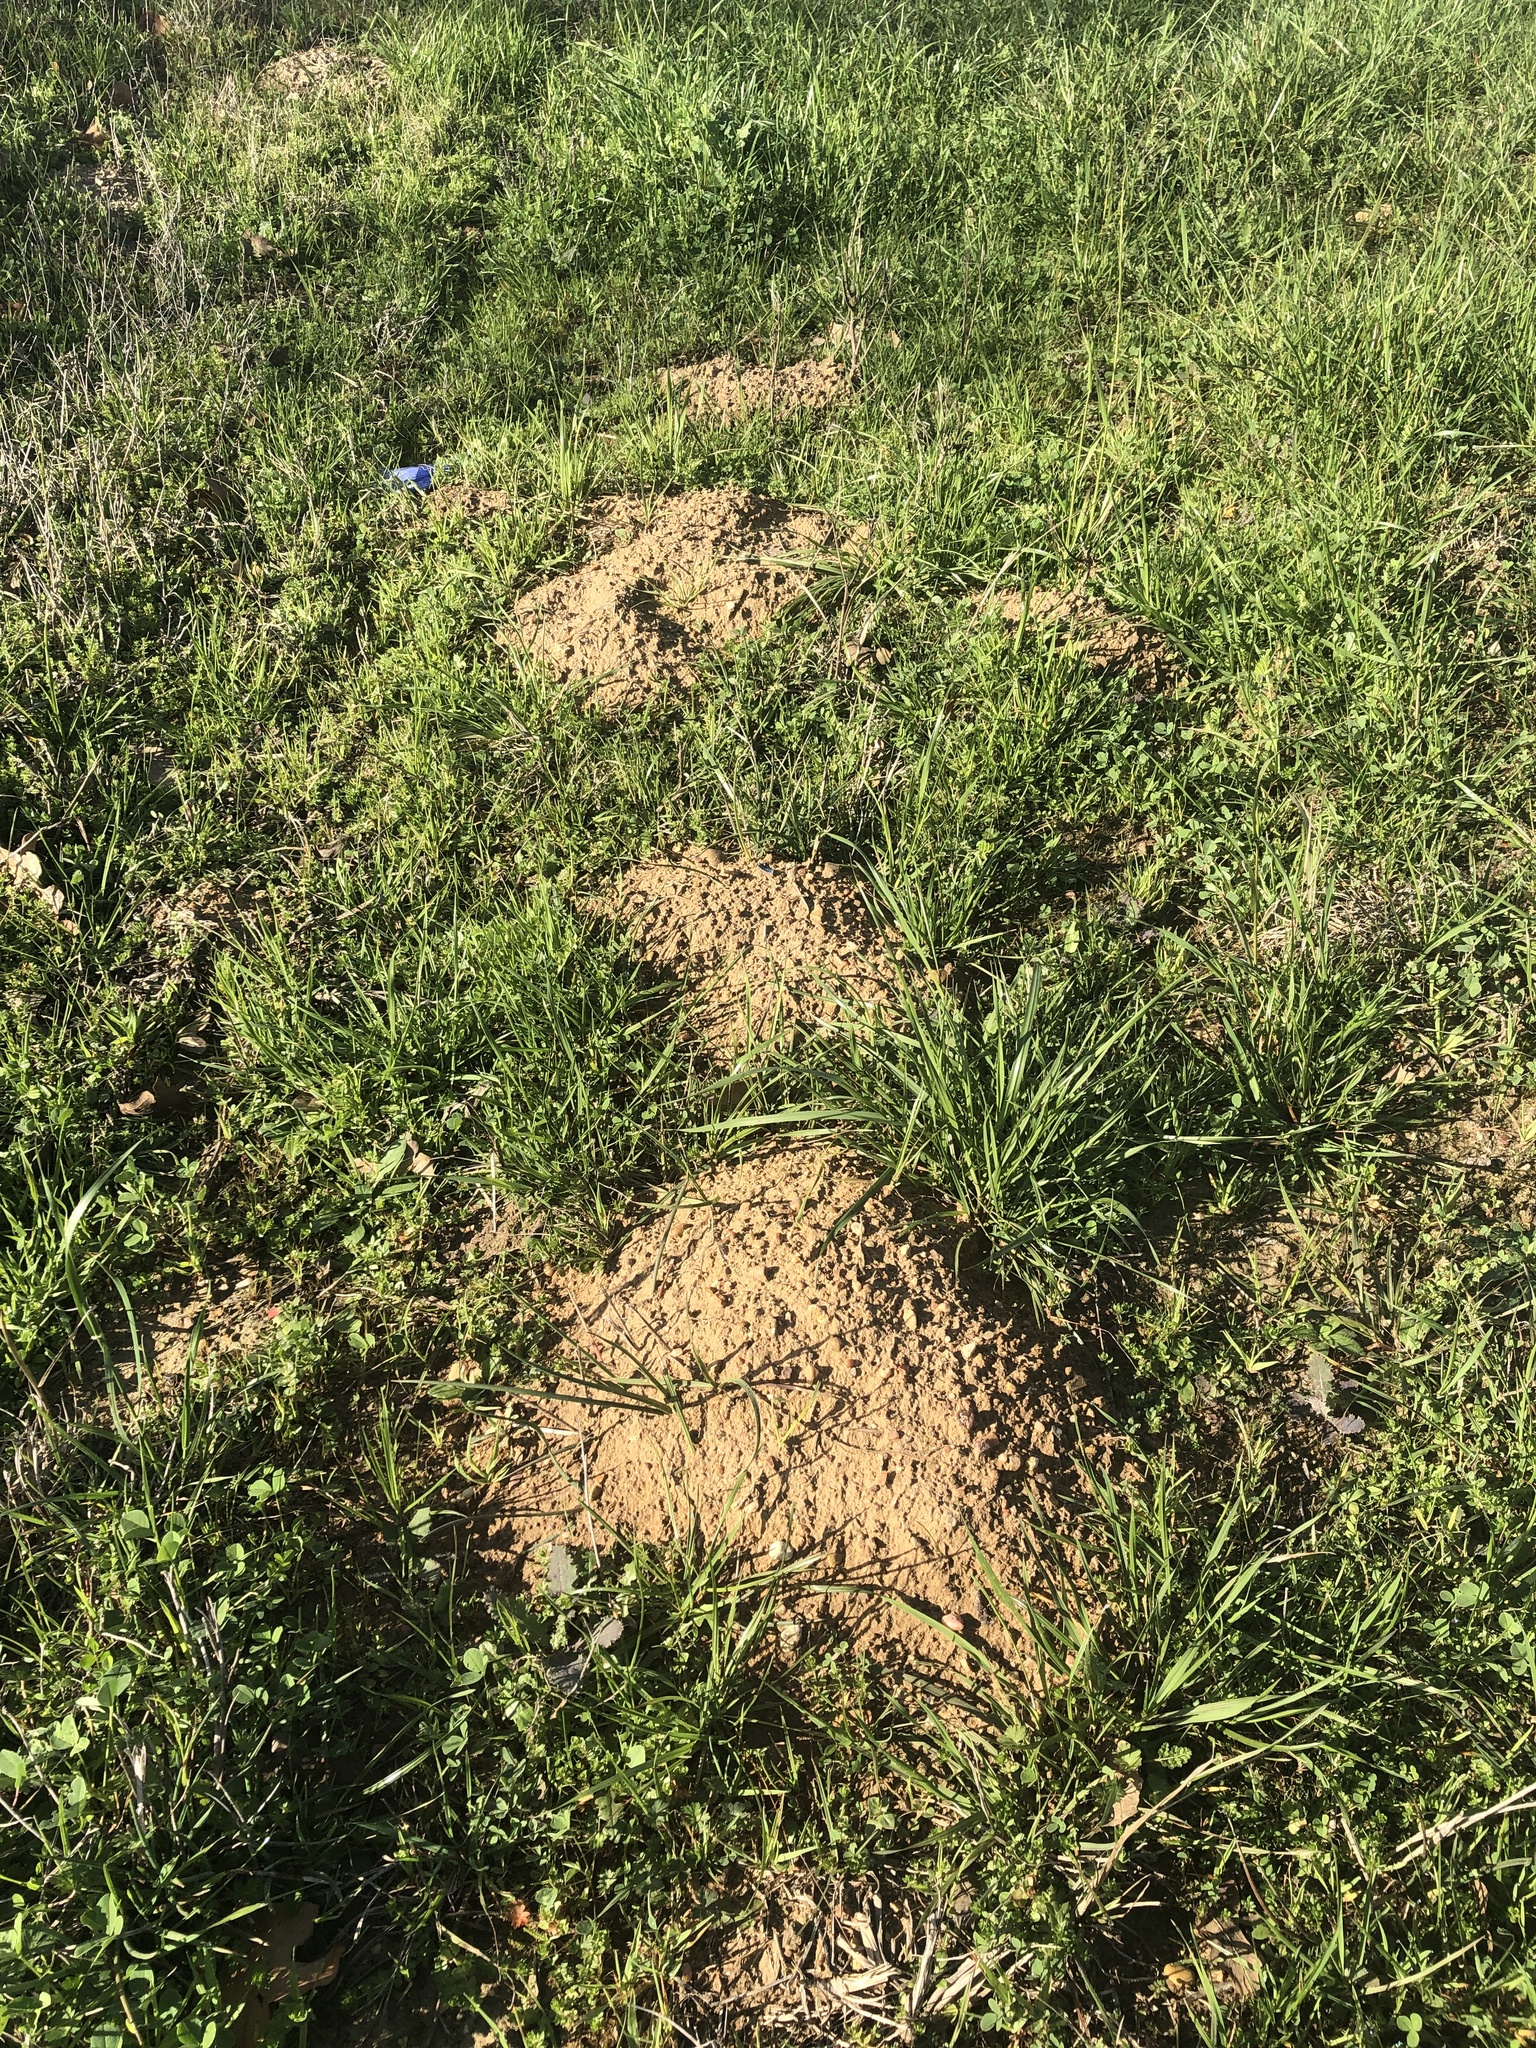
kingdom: Animalia
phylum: Chordata
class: Mammalia
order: Rodentia
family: Geomyidae
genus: Geomys
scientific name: Geomys breviceps
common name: Baird's pocket gopher
